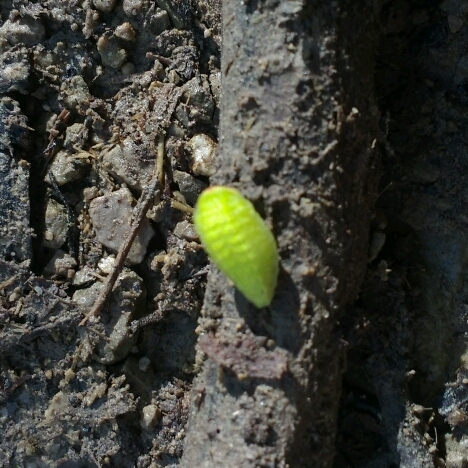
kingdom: Animalia
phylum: Arthropoda
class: Insecta
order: Lepidoptera
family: Limacodidae
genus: Apoda
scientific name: Apoda limacodes
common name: Festoon
